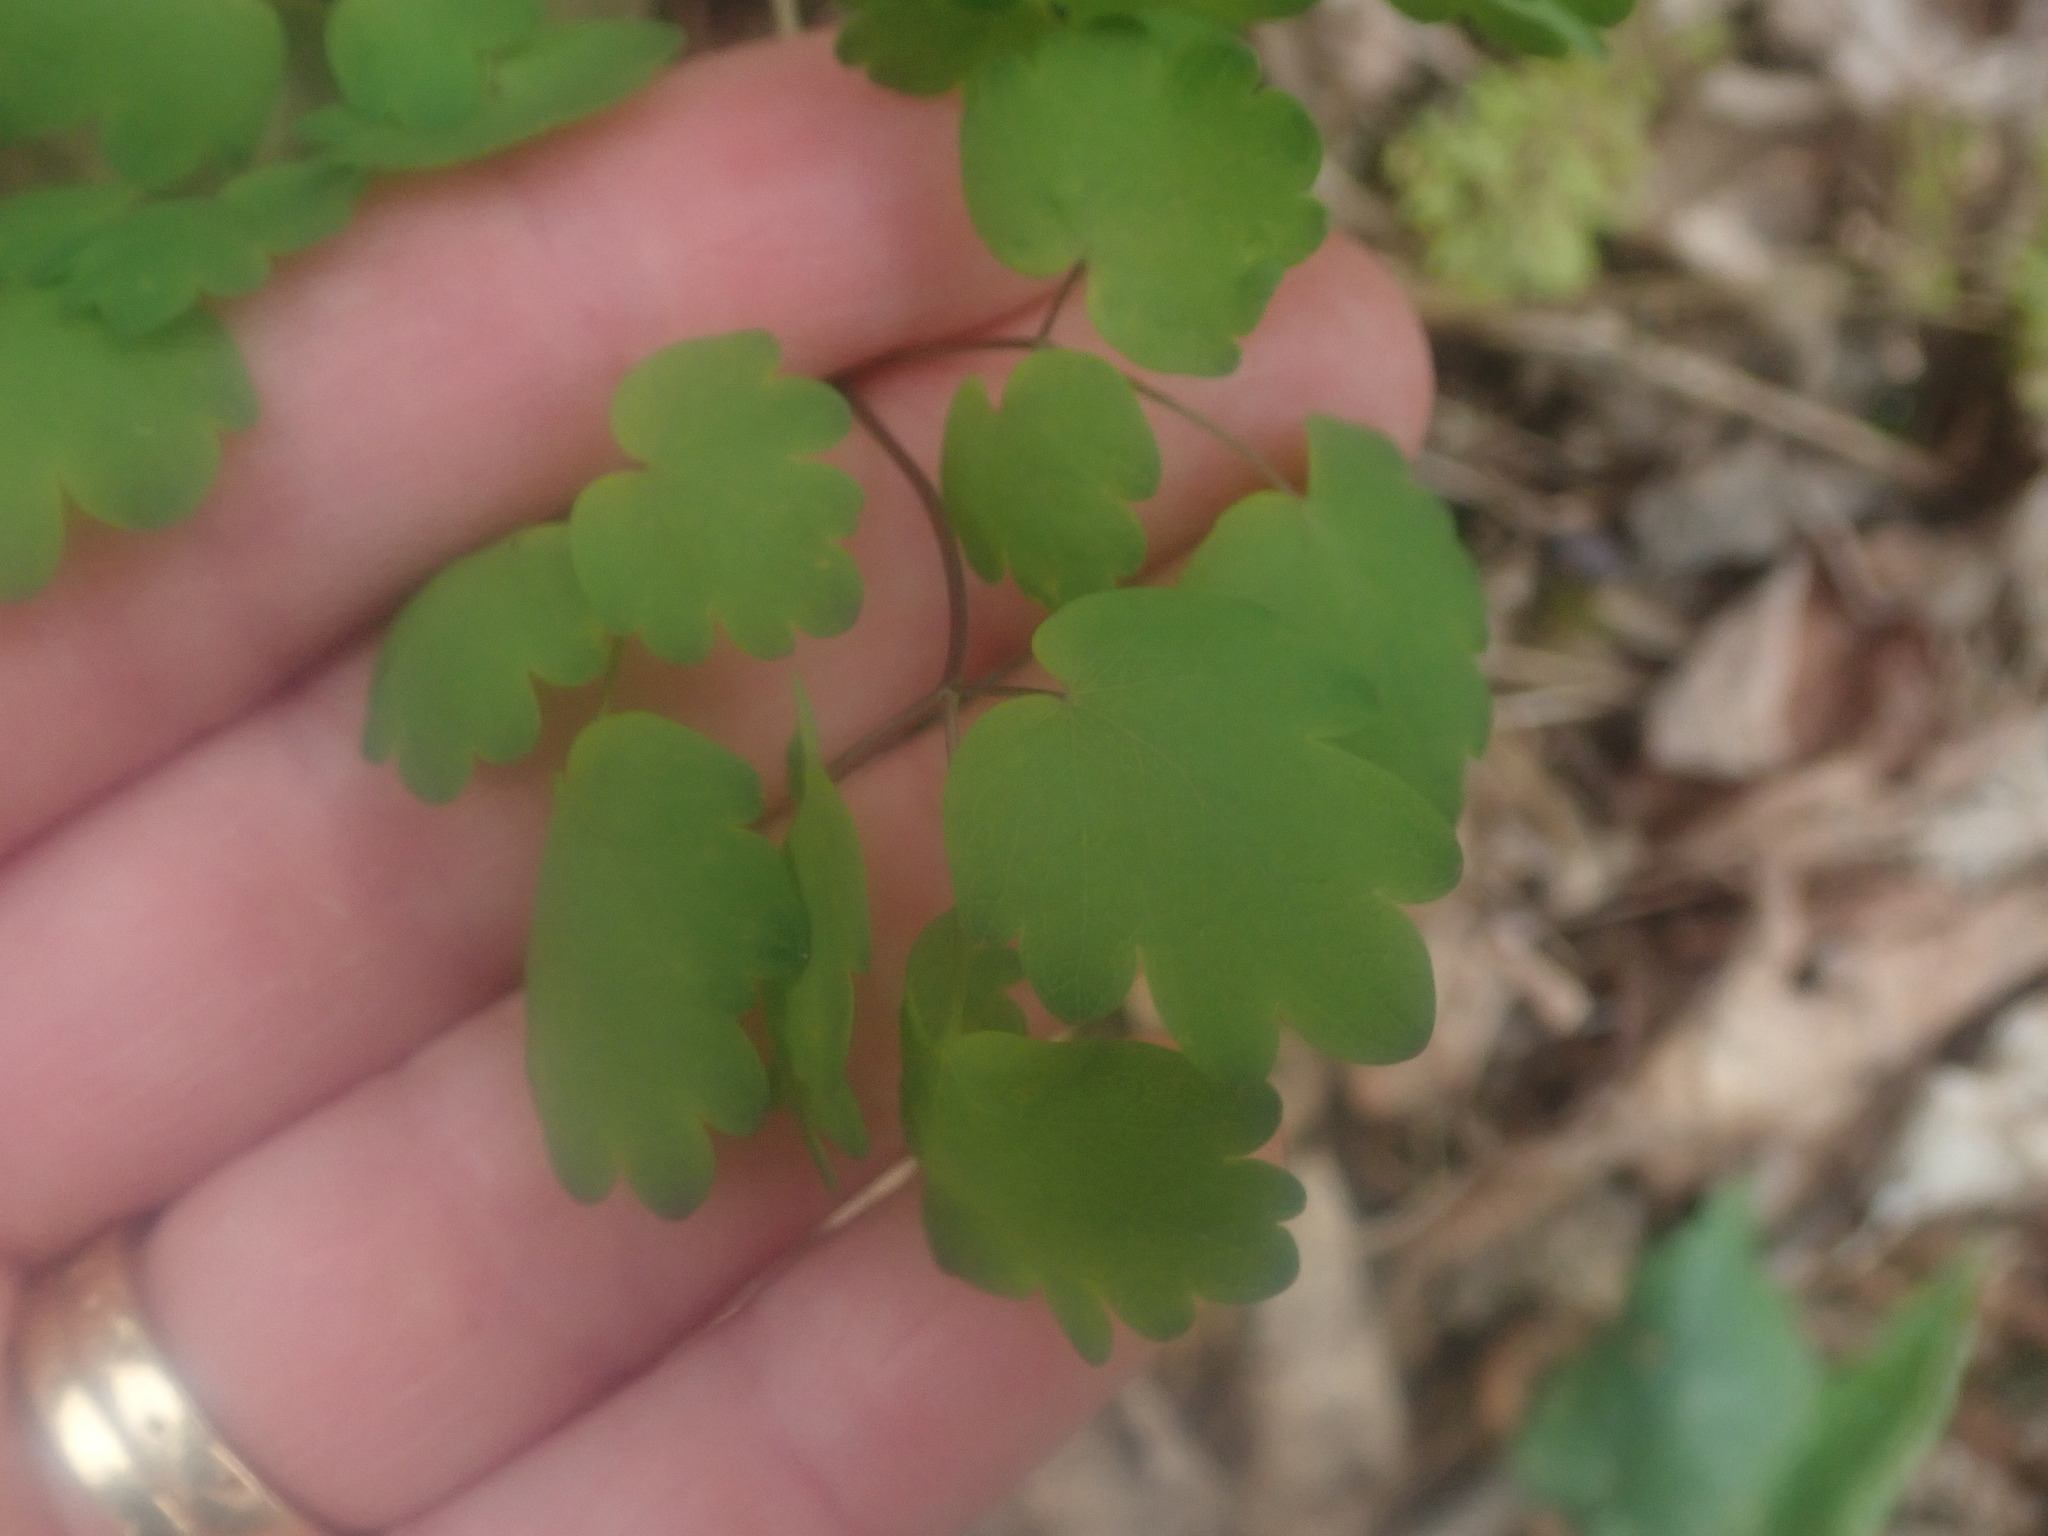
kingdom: Plantae
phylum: Tracheophyta
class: Magnoliopsida
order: Ranunculales
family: Ranunculaceae
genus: Thalictrum
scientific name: Thalictrum dioicum
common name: Early meadow-rue
